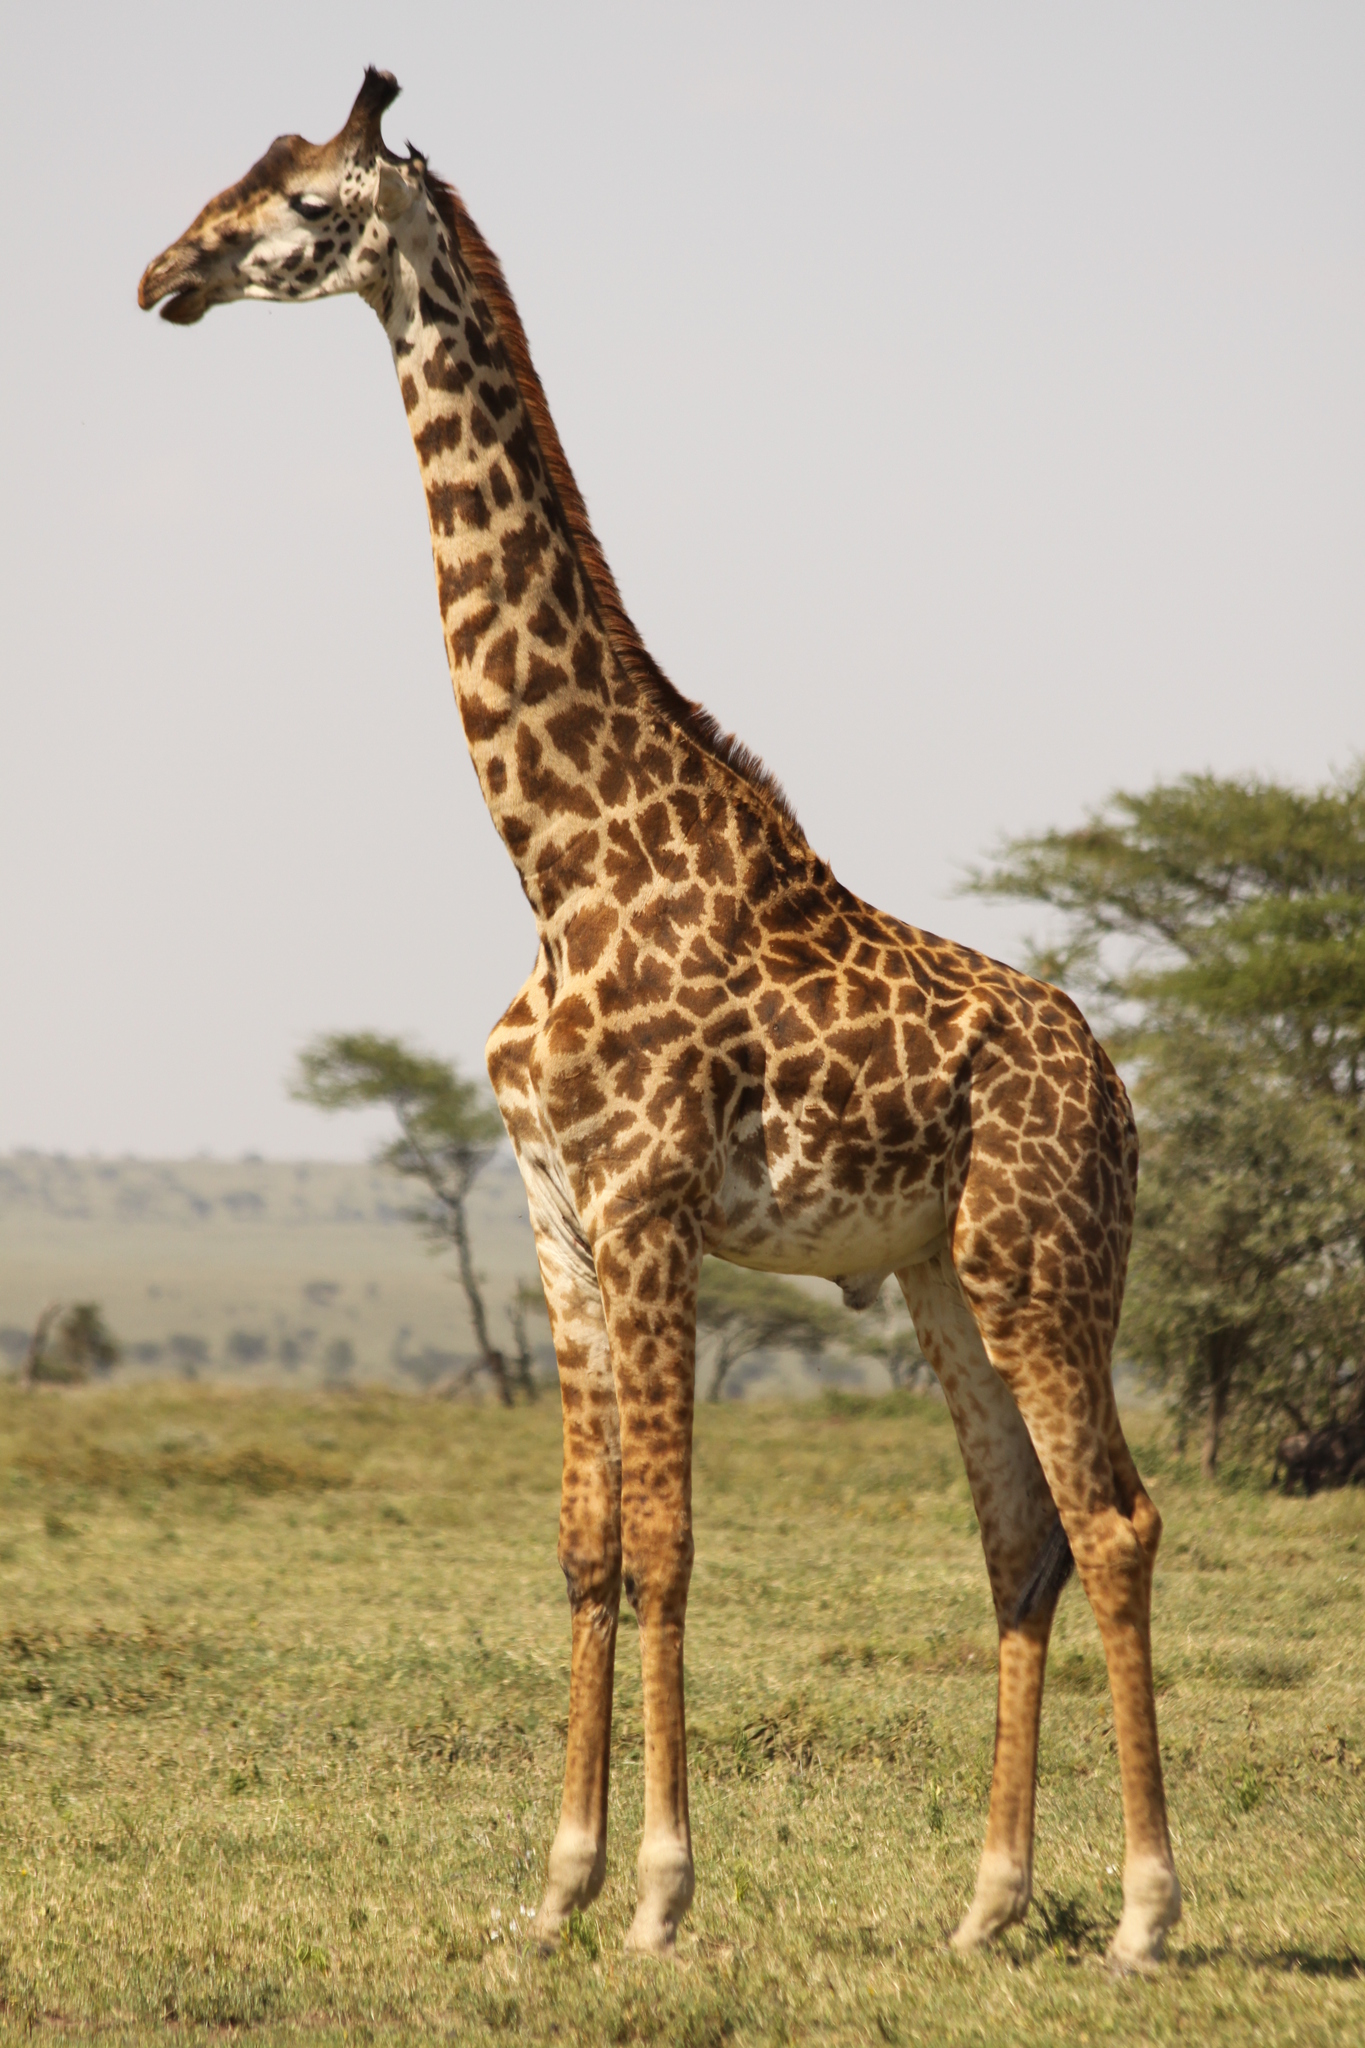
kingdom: Animalia
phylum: Chordata
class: Mammalia
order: Artiodactyla
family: Giraffidae
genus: Giraffa
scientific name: Giraffa tippelskirchi
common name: Masai giraffe
